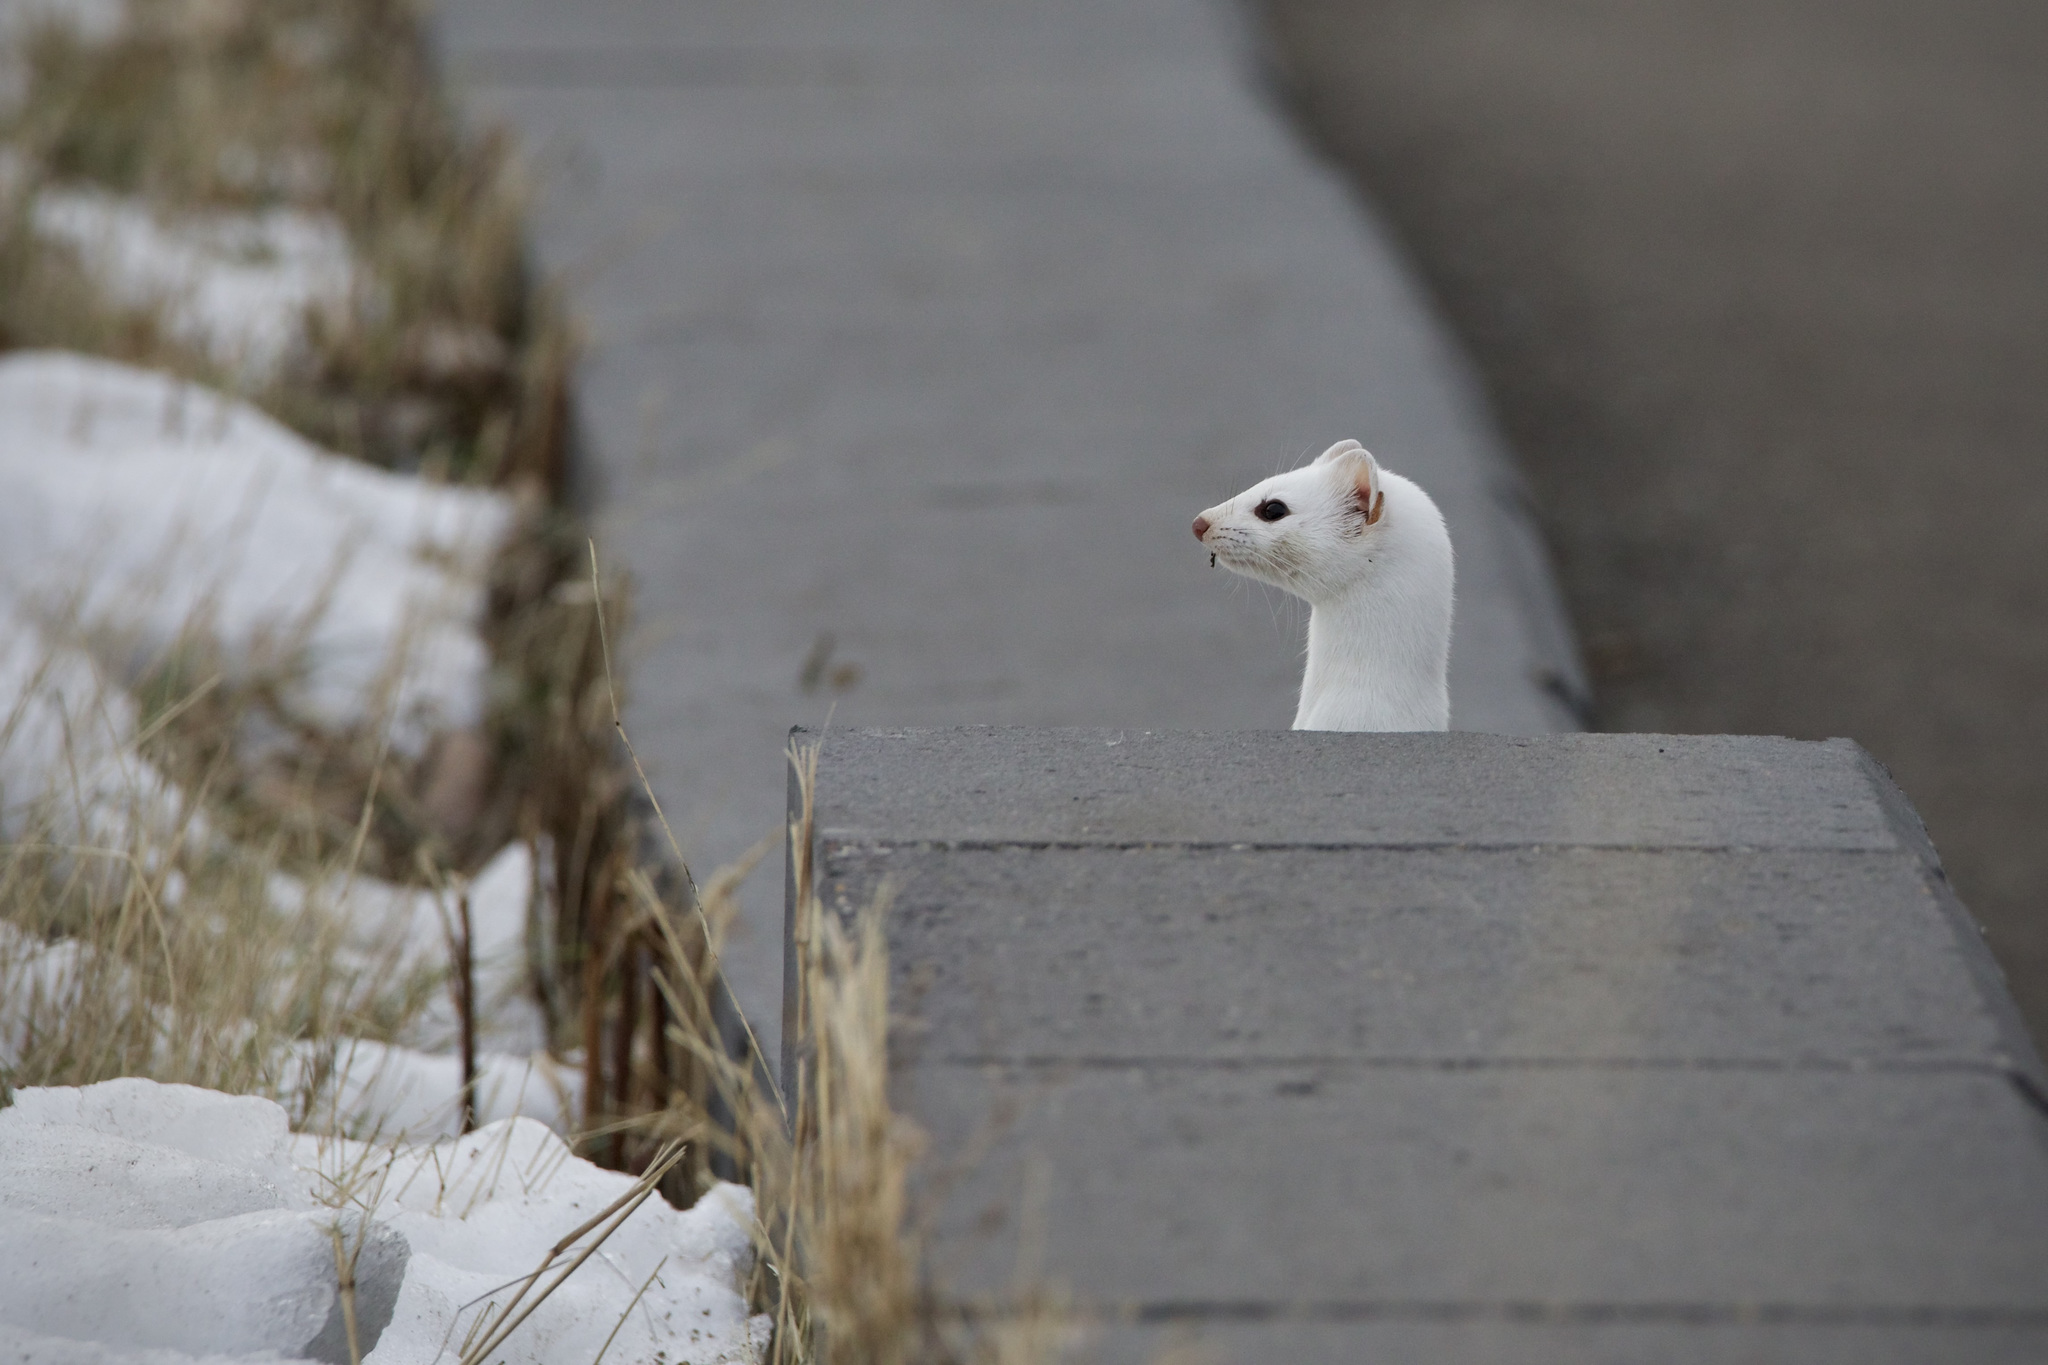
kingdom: Animalia
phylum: Chordata
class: Mammalia
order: Carnivora
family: Mustelidae
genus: Mustela
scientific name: Mustela
